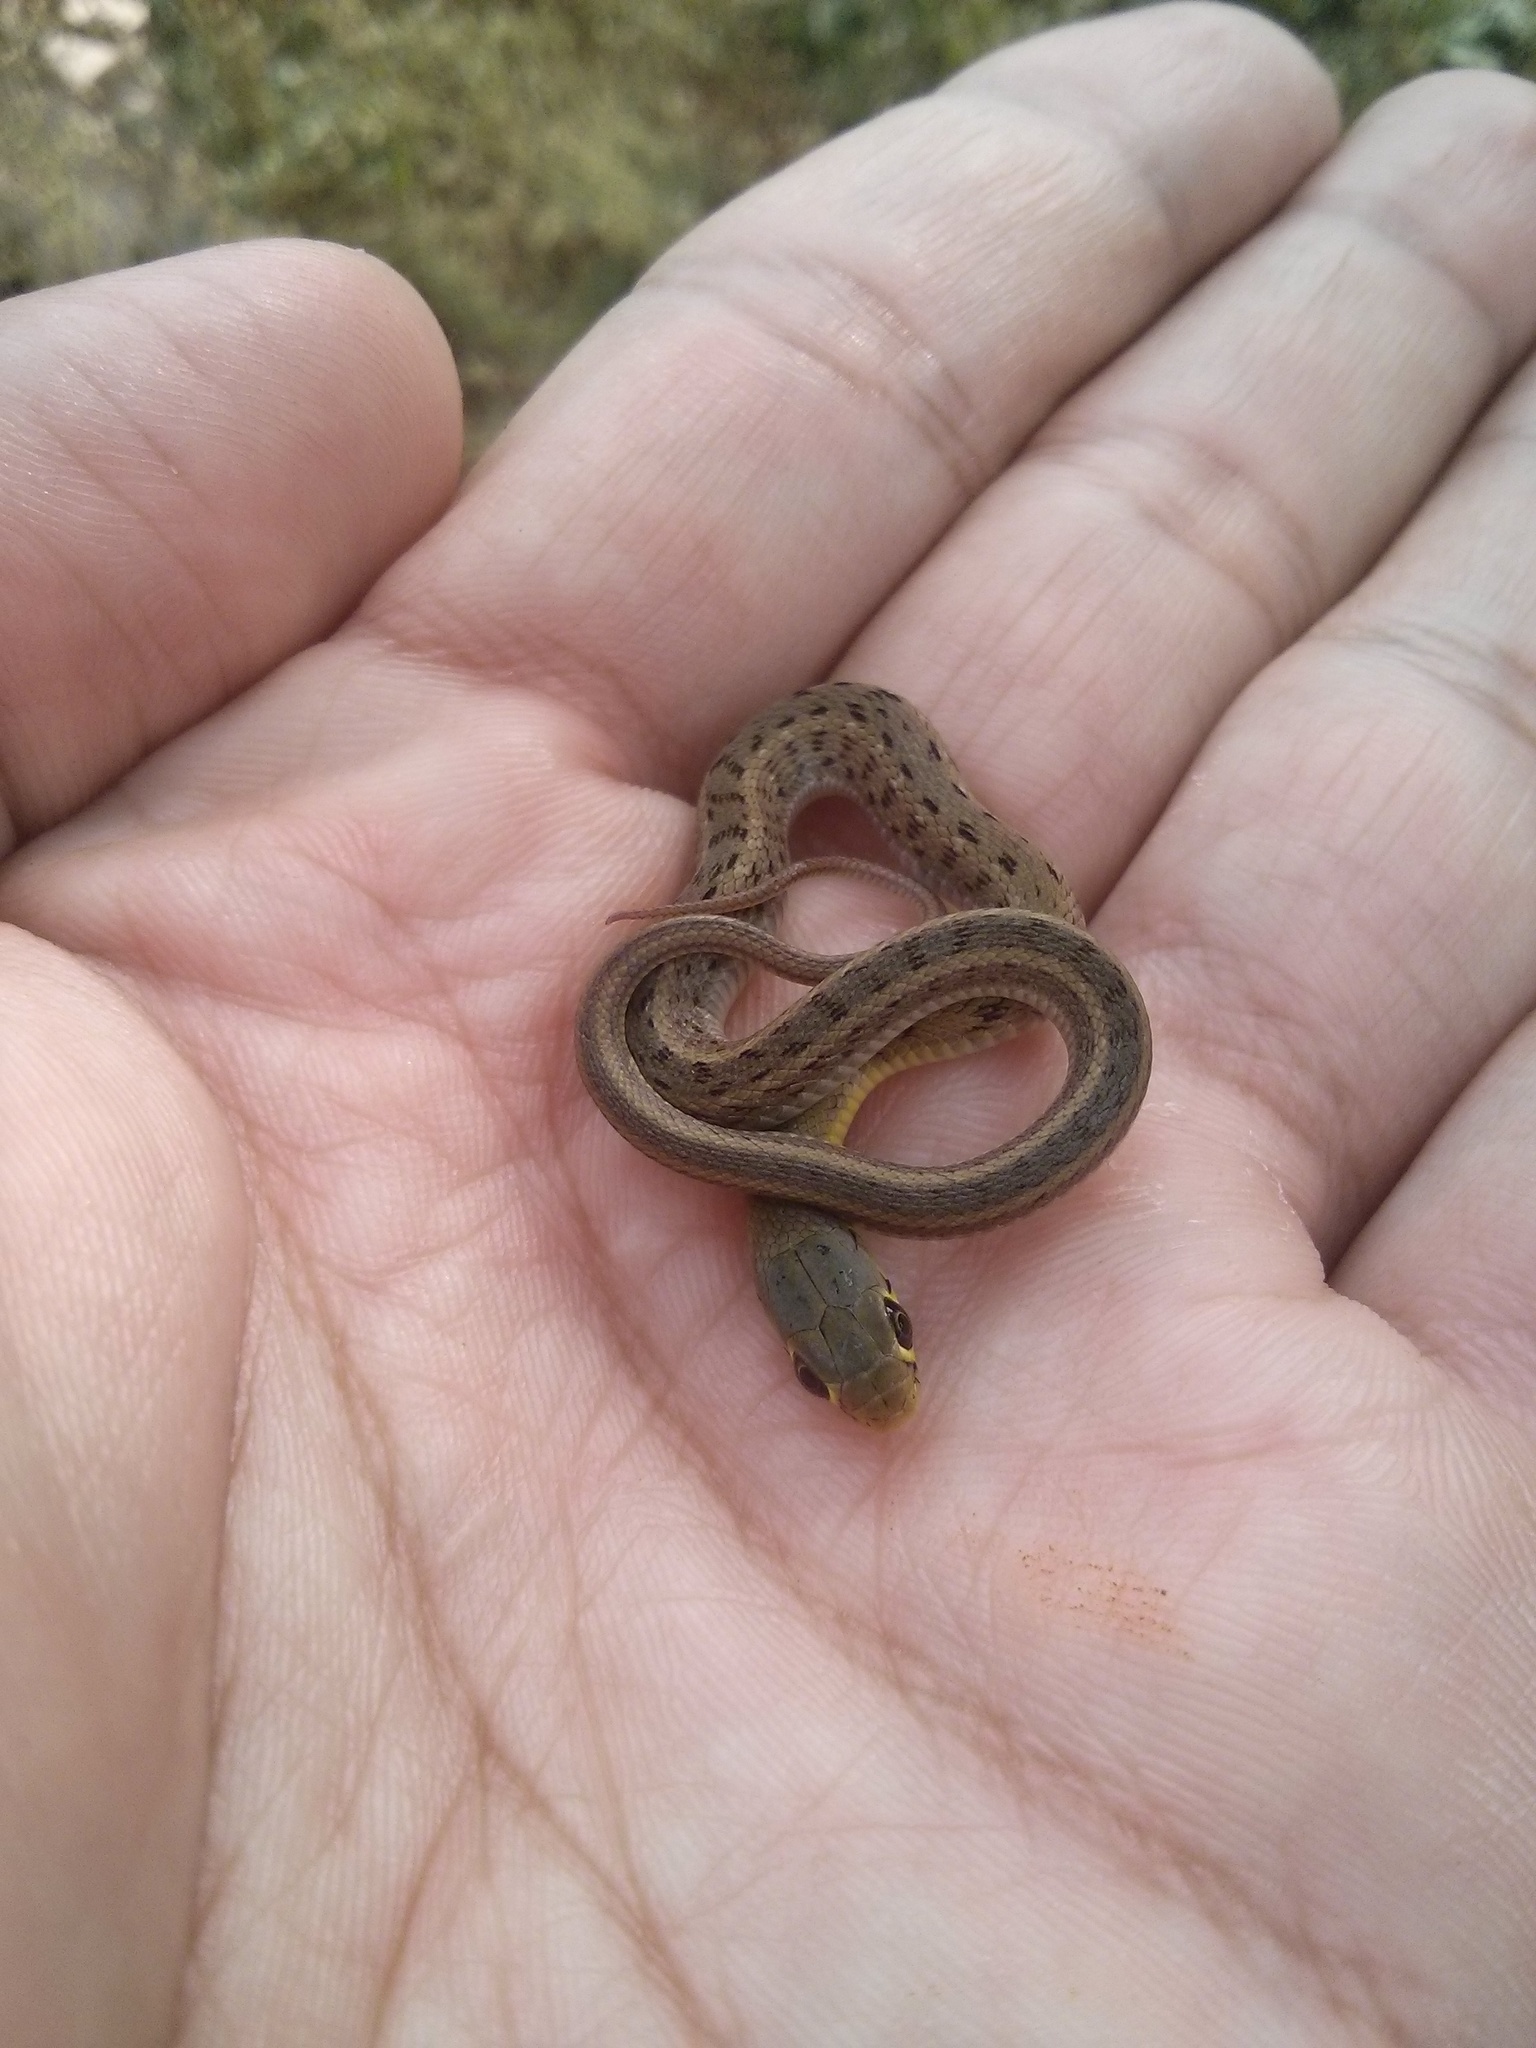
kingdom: Animalia
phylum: Chordata
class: Squamata
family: Colubridae
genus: Amphiesma
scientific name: Amphiesma stolatum
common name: Buff striped keelback
